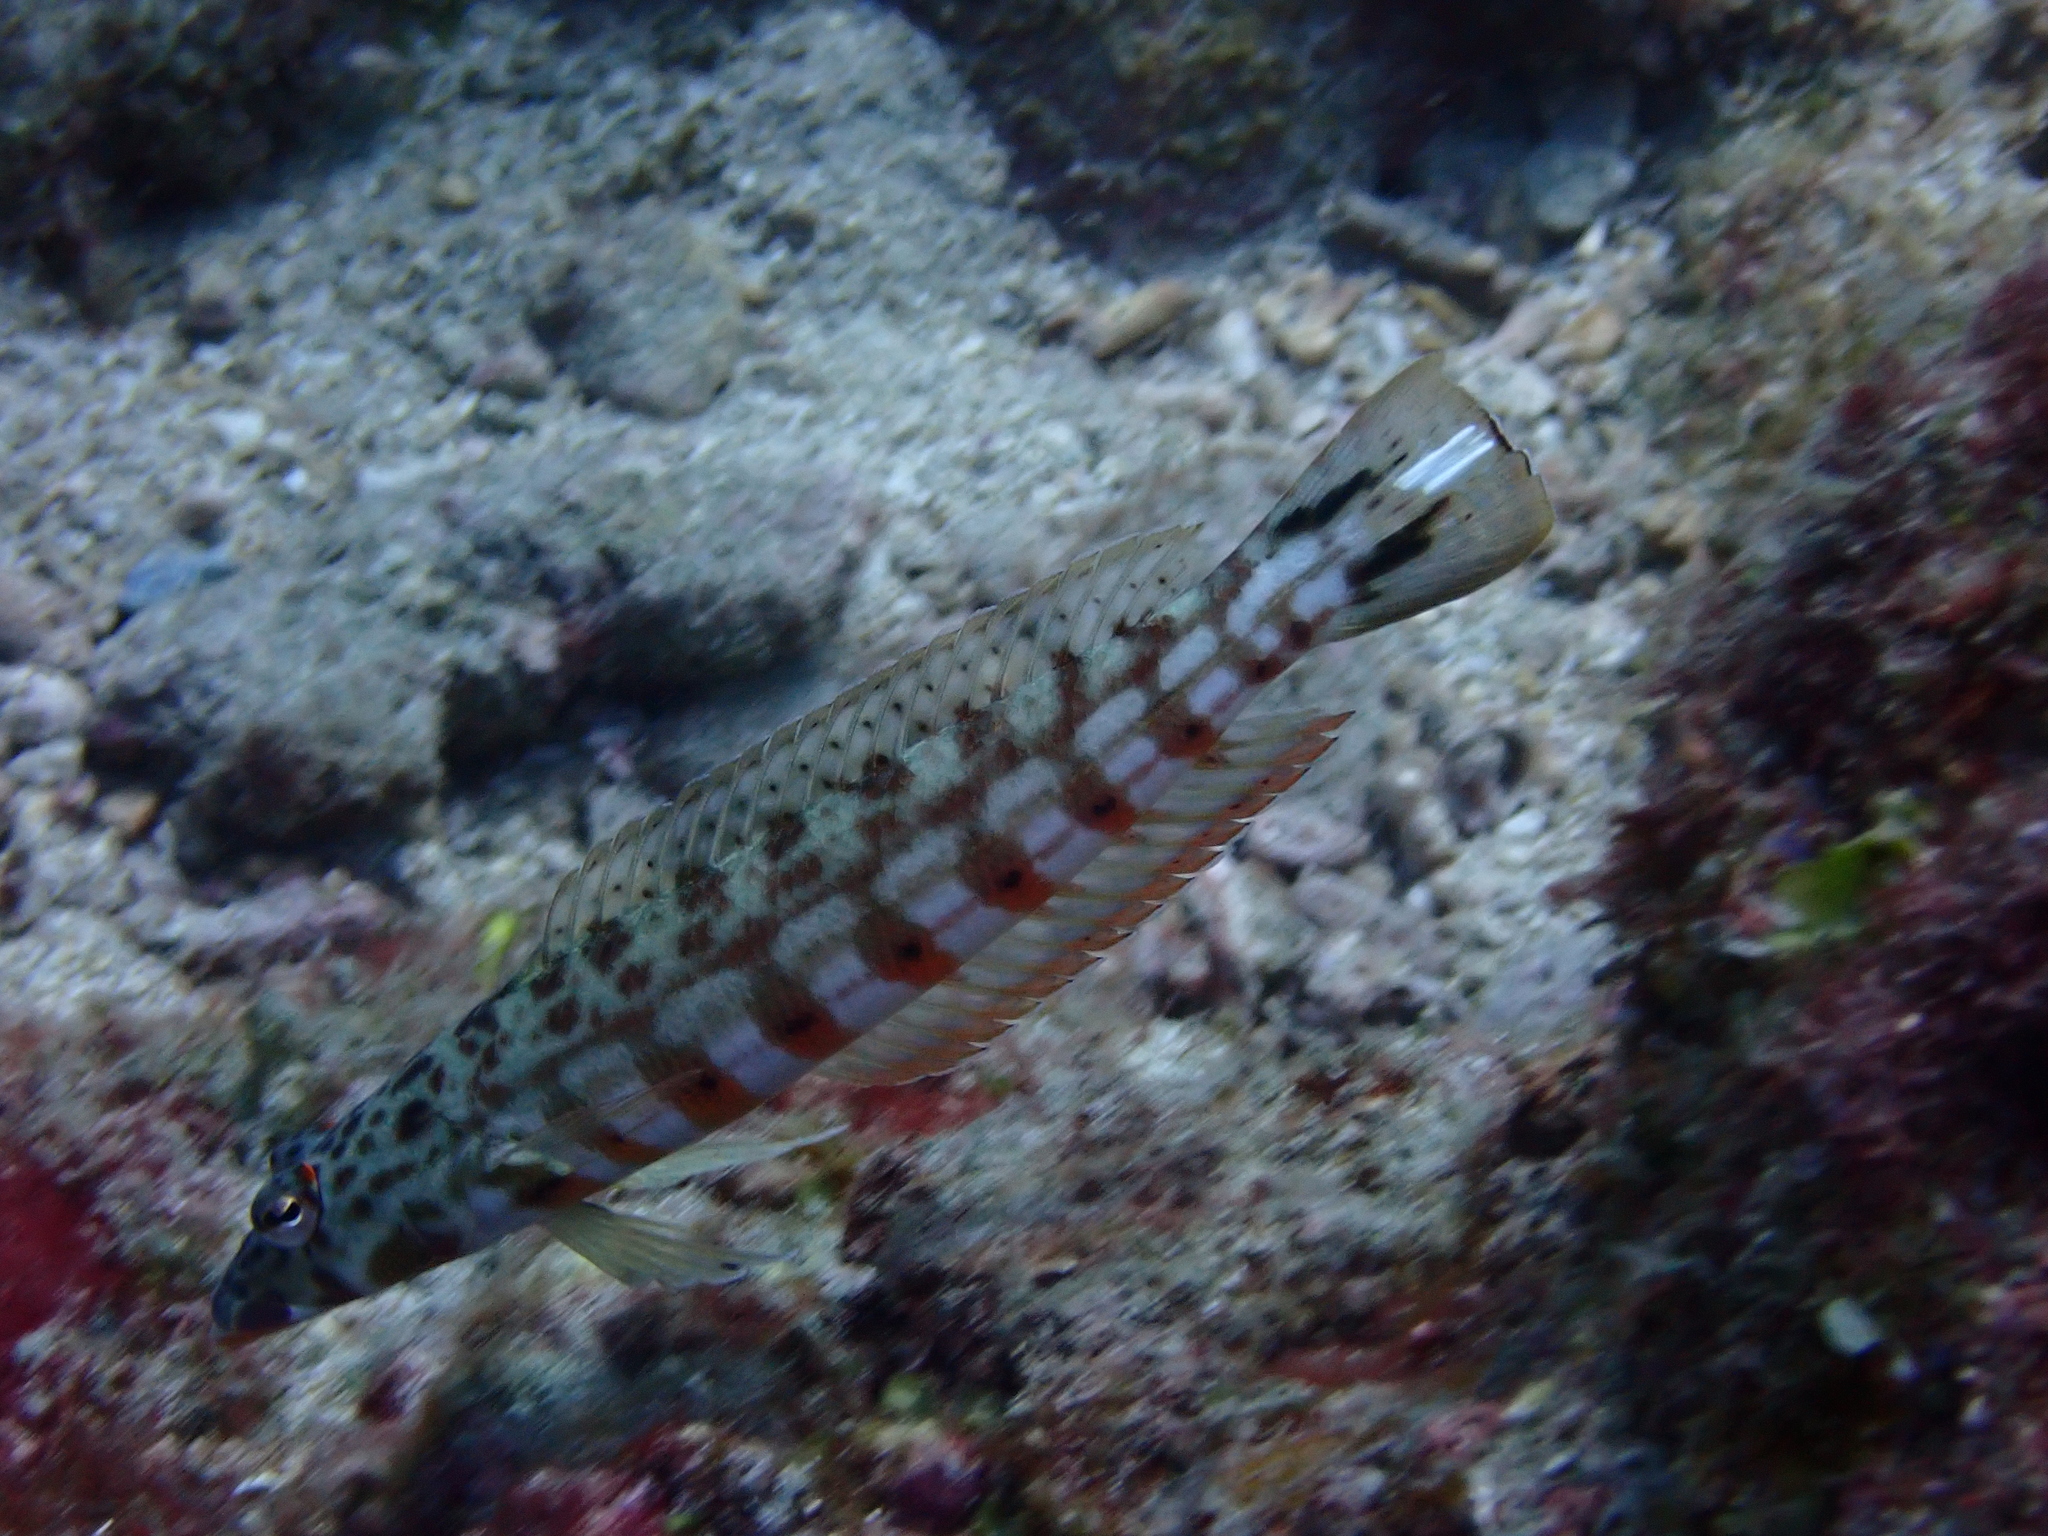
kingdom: Animalia
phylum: Chordata
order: Perciformes
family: Pinguipedidae
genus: Parapercis
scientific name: Parapercis clathrata
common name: Latticed sandperch
